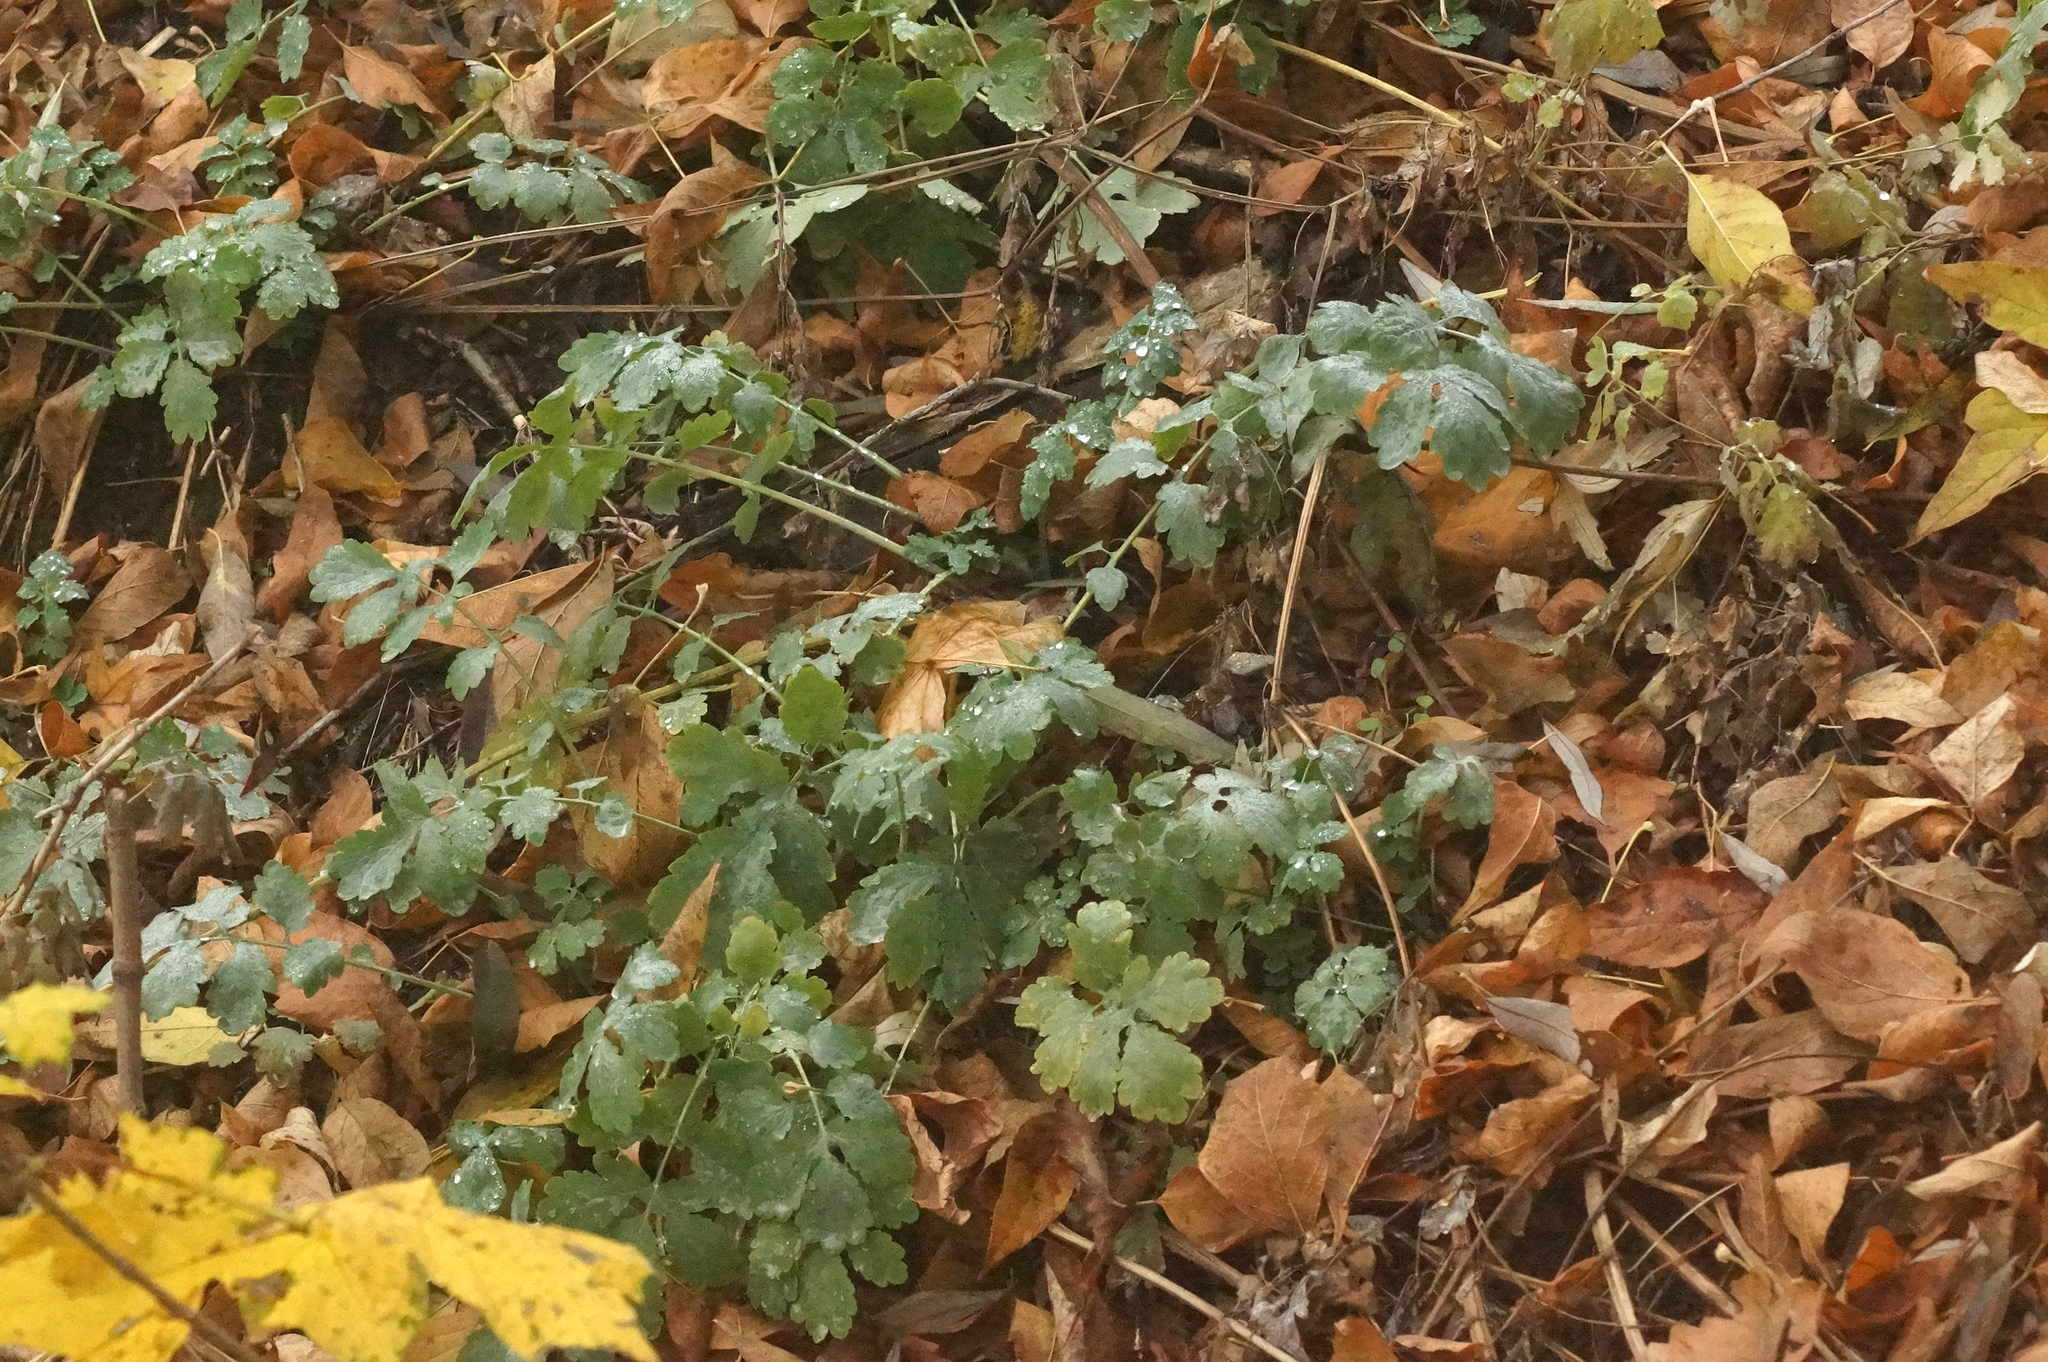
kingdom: Plantae
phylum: Tracheophyta
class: Magnoliopsida
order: Ranunculales
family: Papaveraceae
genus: Chelidonium
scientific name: Chelidonium majus
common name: Greater celandine
